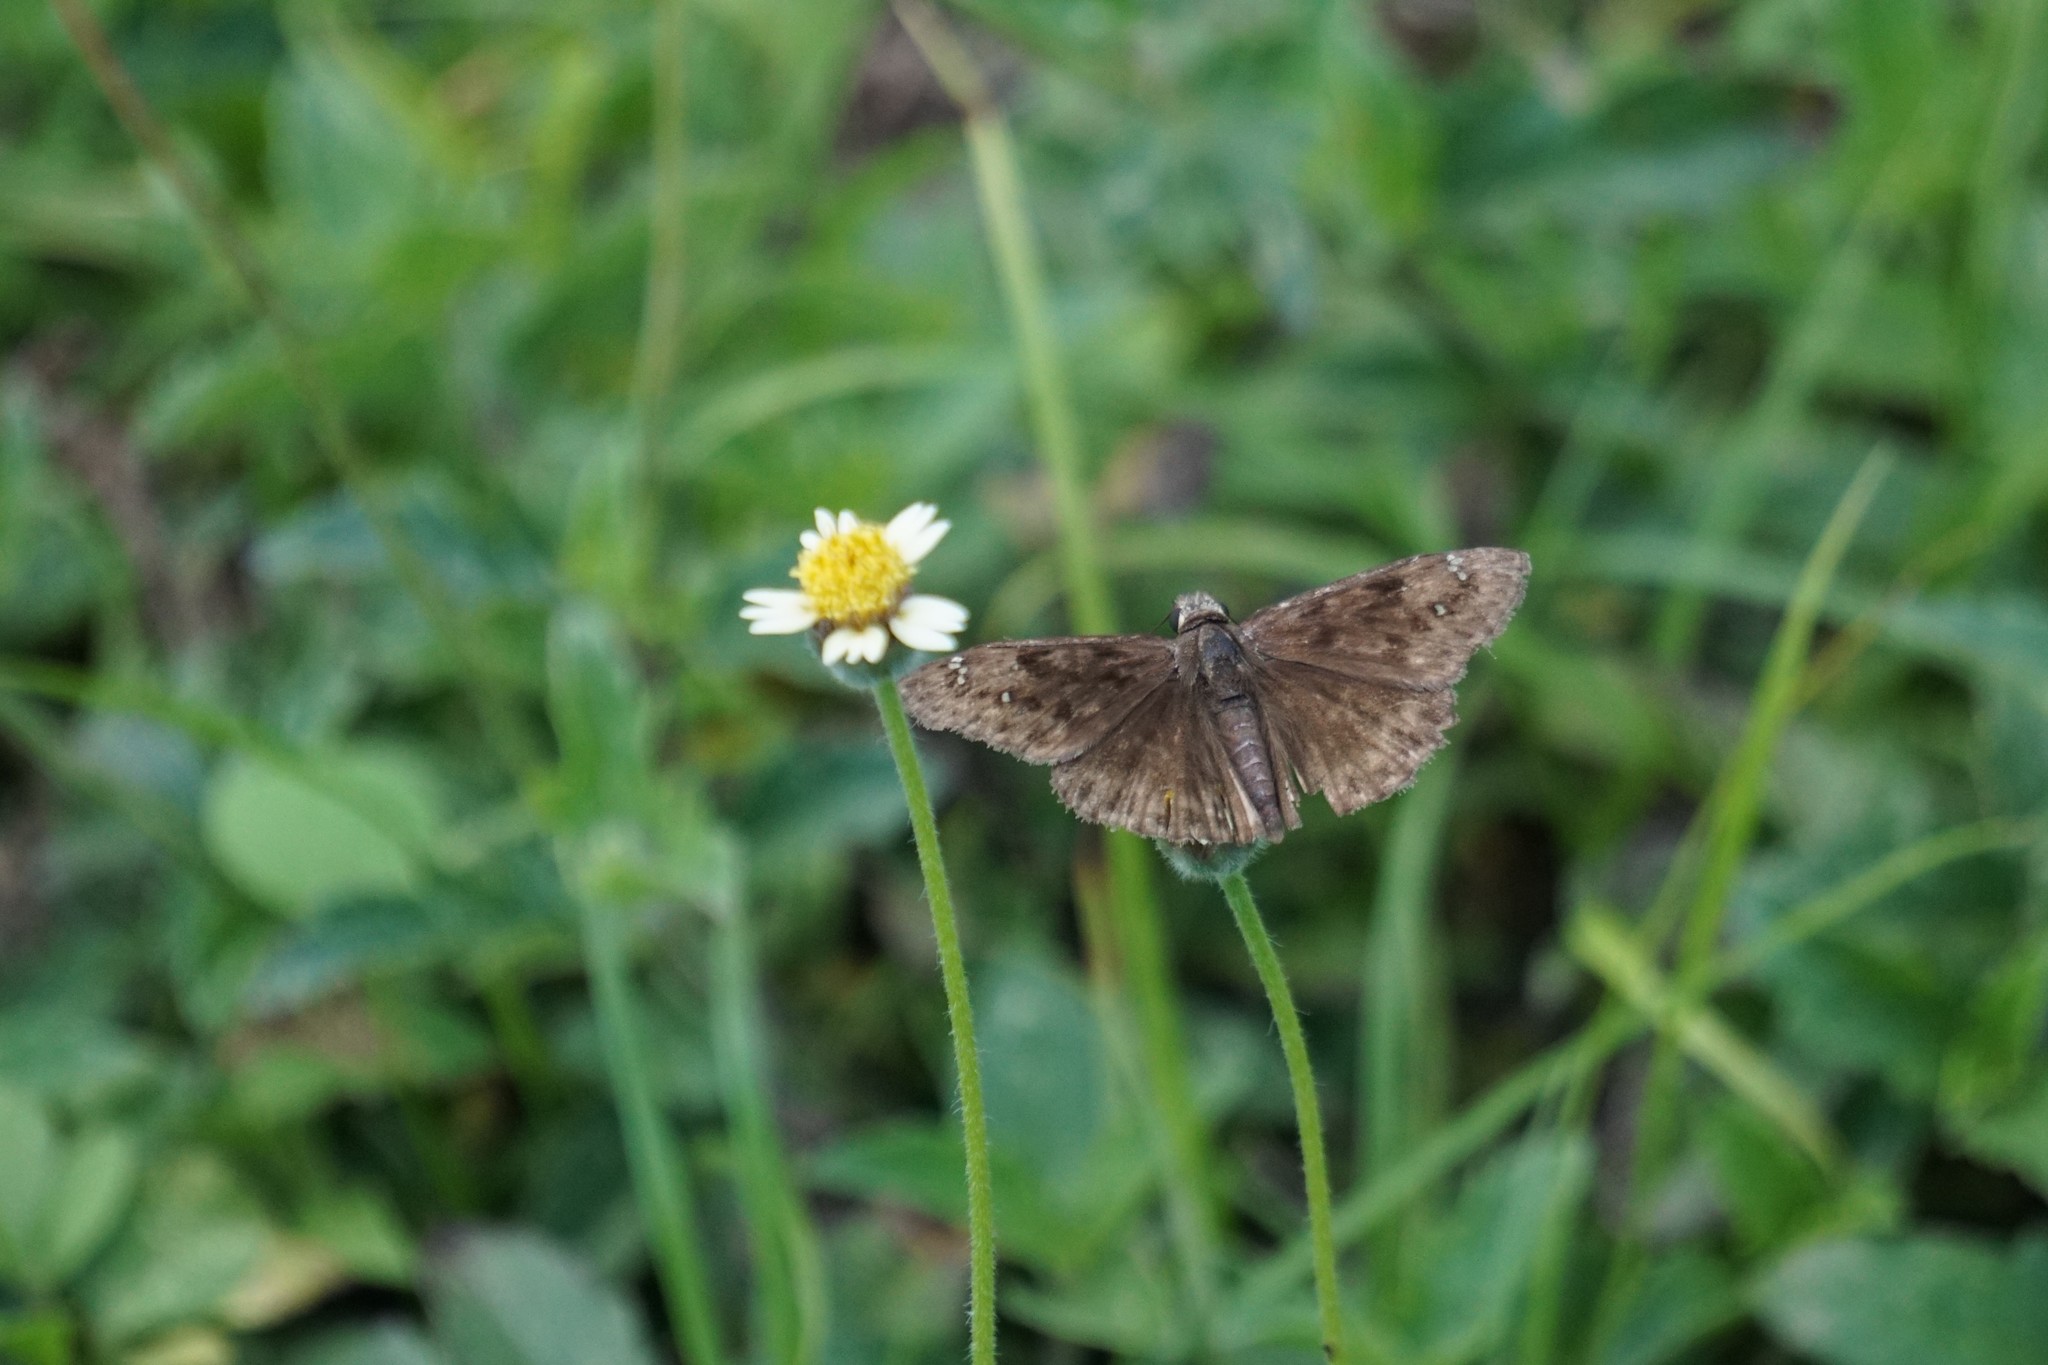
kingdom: Animalia
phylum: Arthropoda
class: Insecta
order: Lepidoptera
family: Hesperiidae
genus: Erynnis
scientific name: Erynnis horatius
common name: Horace's duskywing
